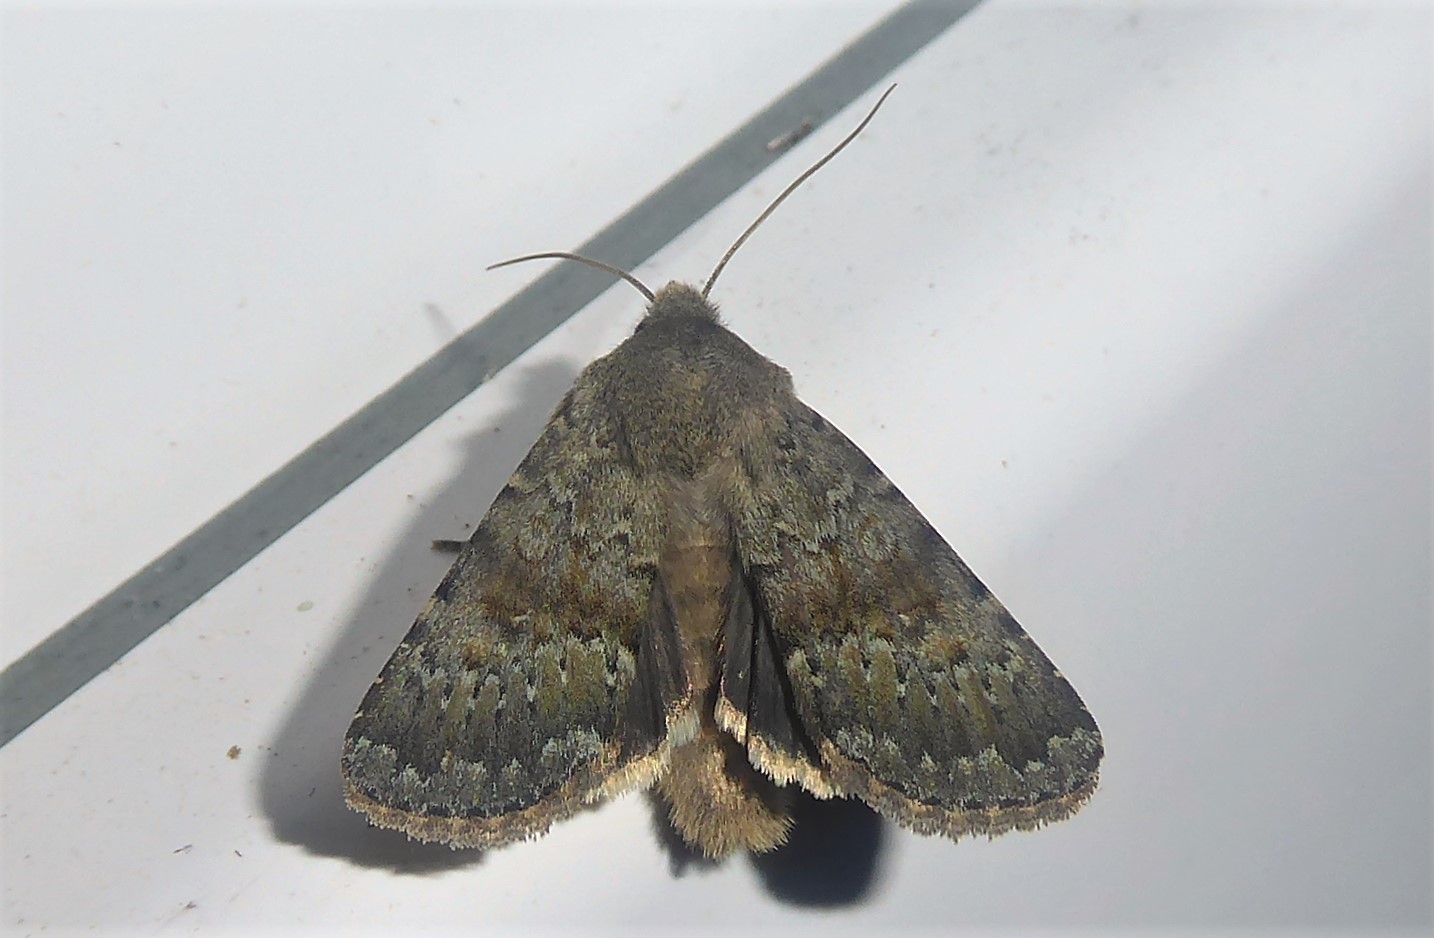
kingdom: Animalia
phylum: Arthropoda
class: Insecta
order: Lepidoptera
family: Noctuidae
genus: Ichneutica
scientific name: Ichneutica moderata
